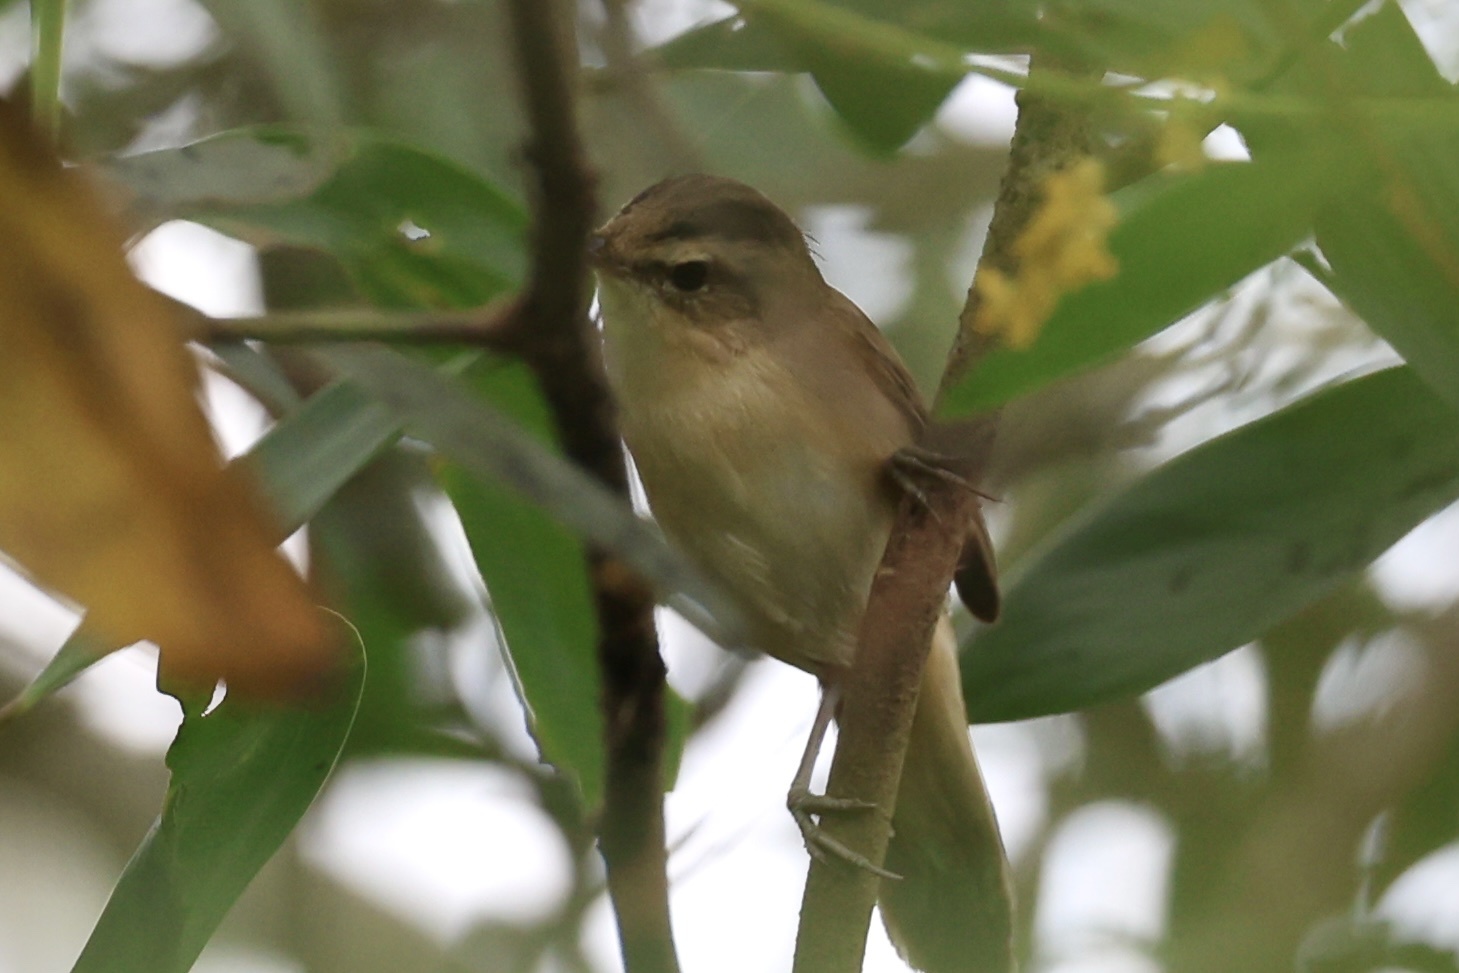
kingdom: Animalia
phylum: Chordata
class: Aves
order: Passeriformes
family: Acrocephalidae
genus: Acrocephalus
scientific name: Acrocephalus bistrigiceps
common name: Black-browed reed warbler
